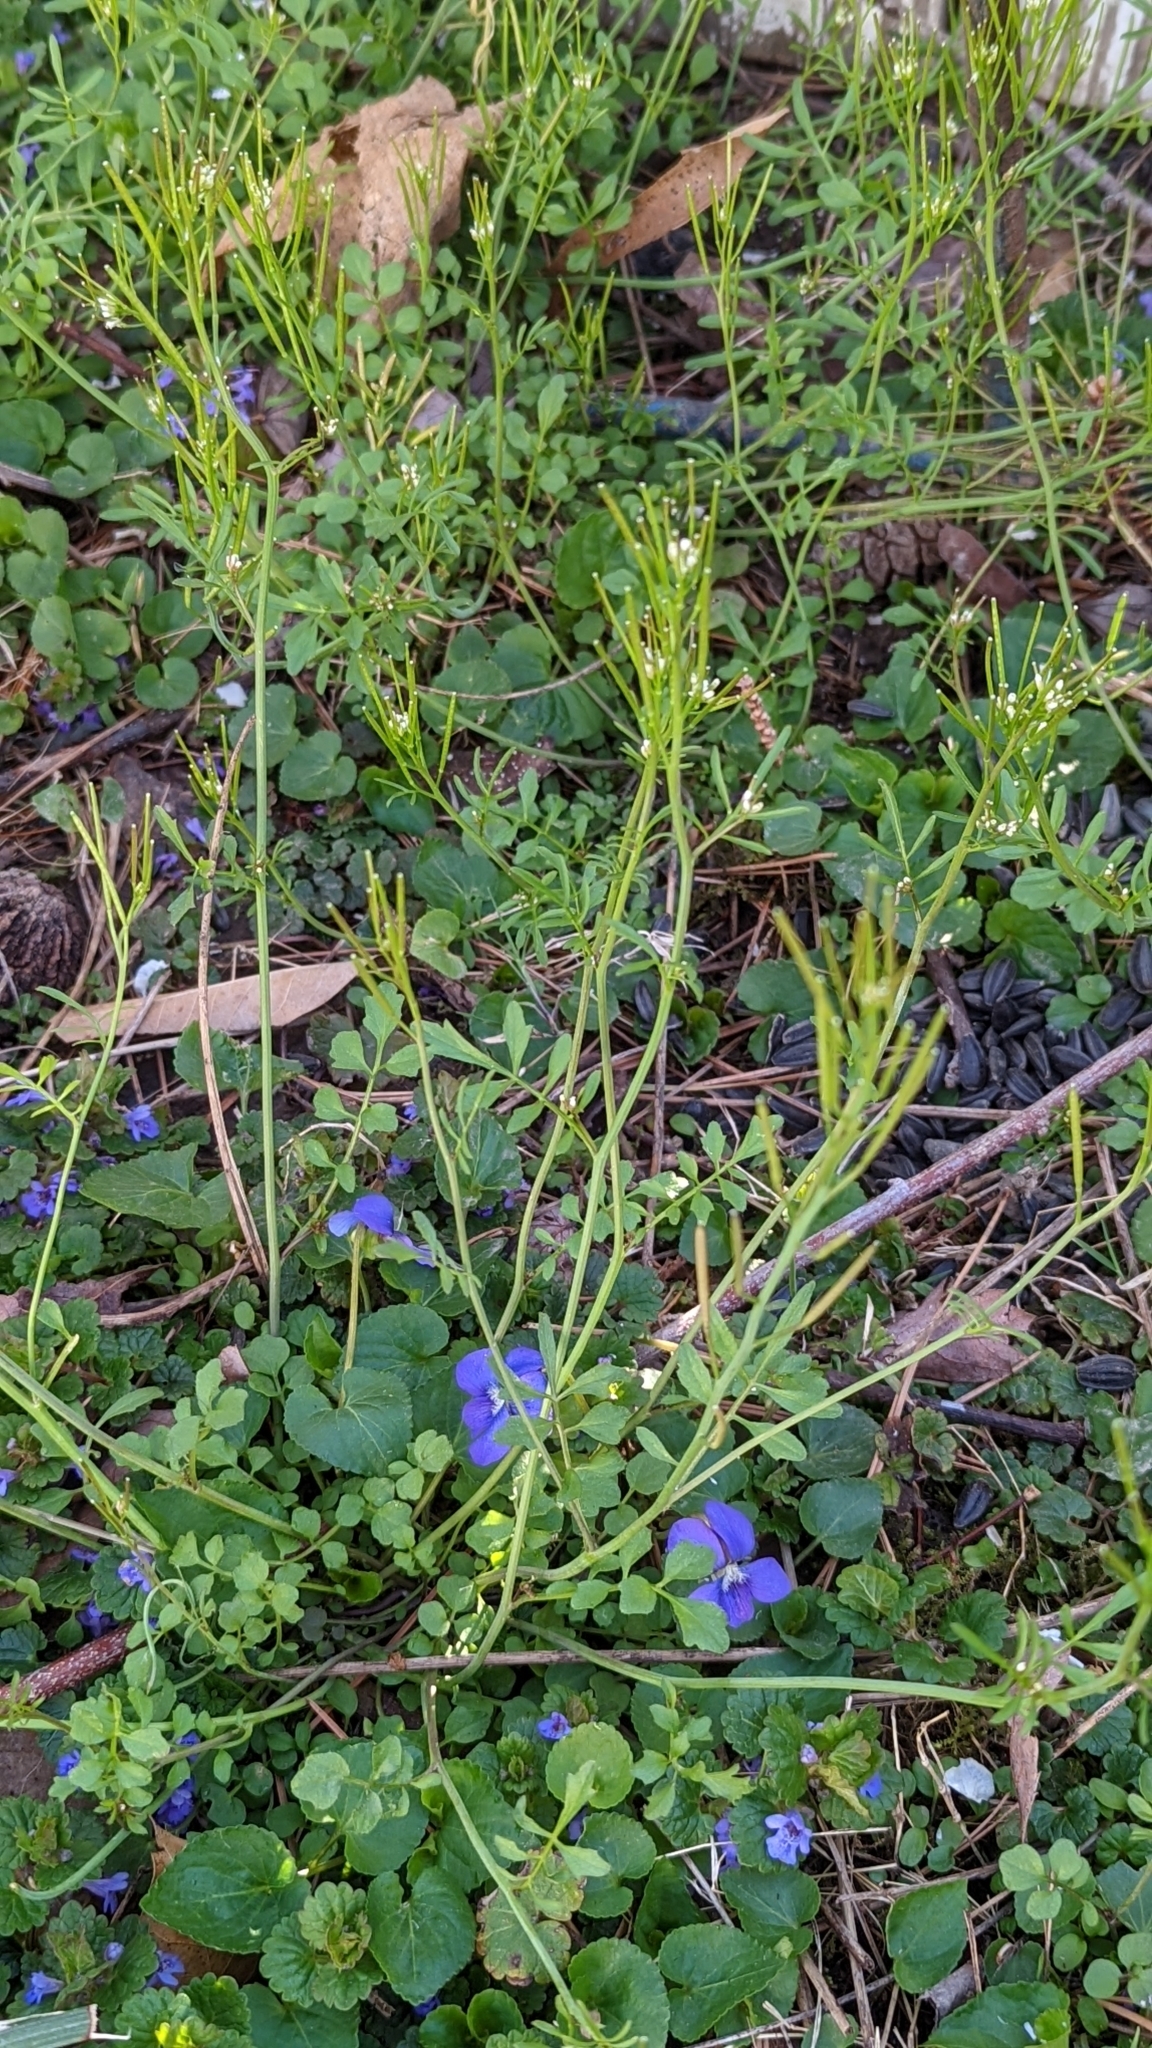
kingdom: Plantae
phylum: Tracheophyta
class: Magnoliopsida
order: Brassicales
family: Brassicaceae
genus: Cardamine
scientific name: Cardamine hirsuta
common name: Hairy bittercress
